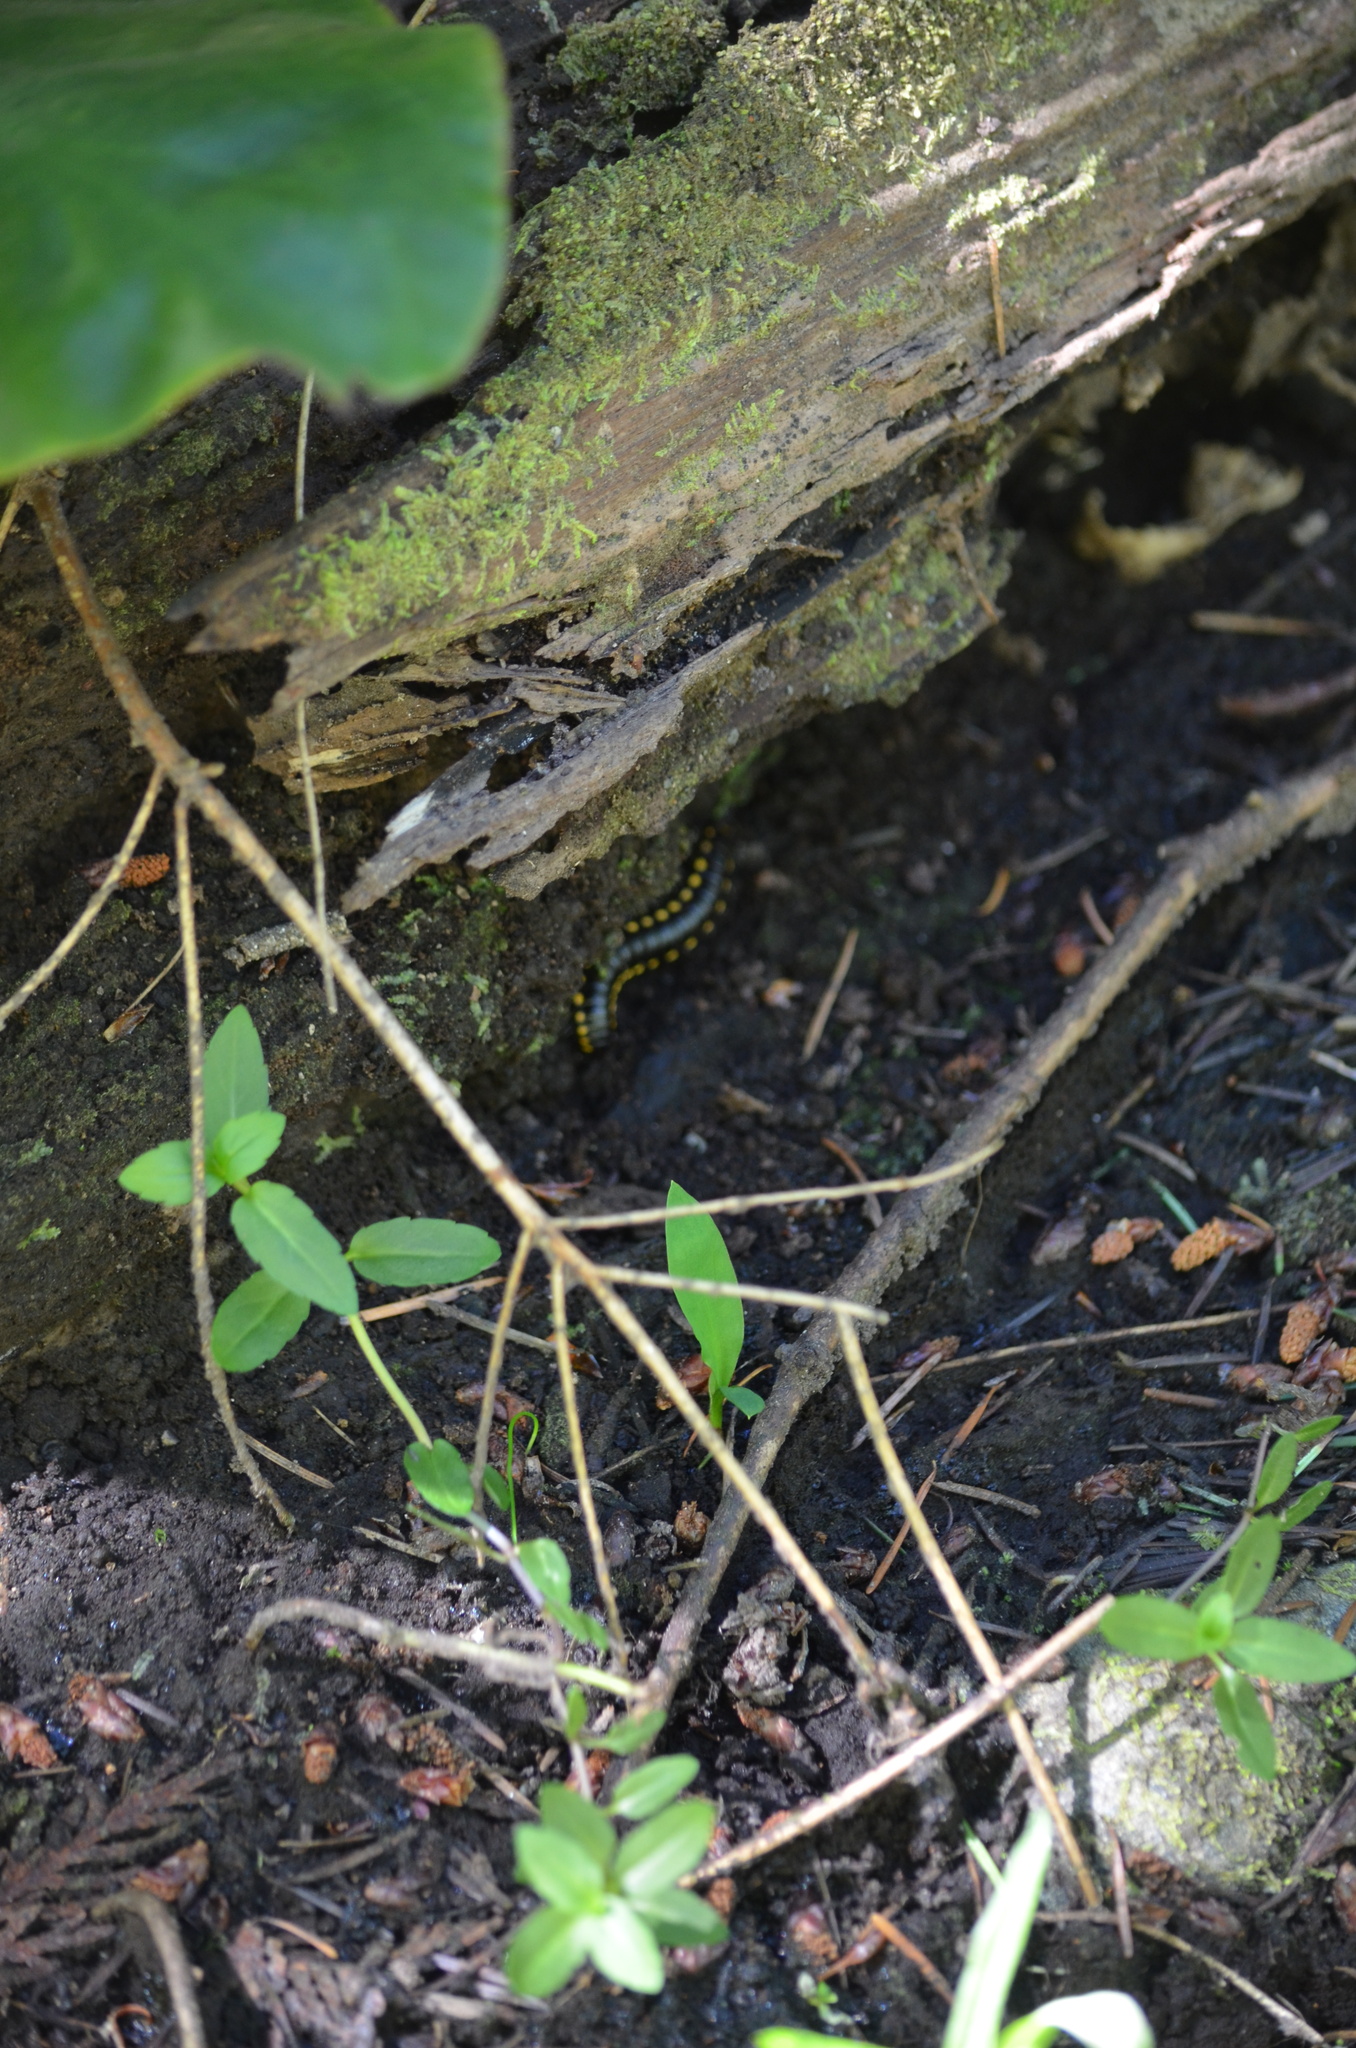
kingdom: Animalia
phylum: Arthropoda
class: Diplopoda
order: Polydesmida
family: Xystodesmidae
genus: Harpaphe
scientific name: Harpaphe haydeniana
